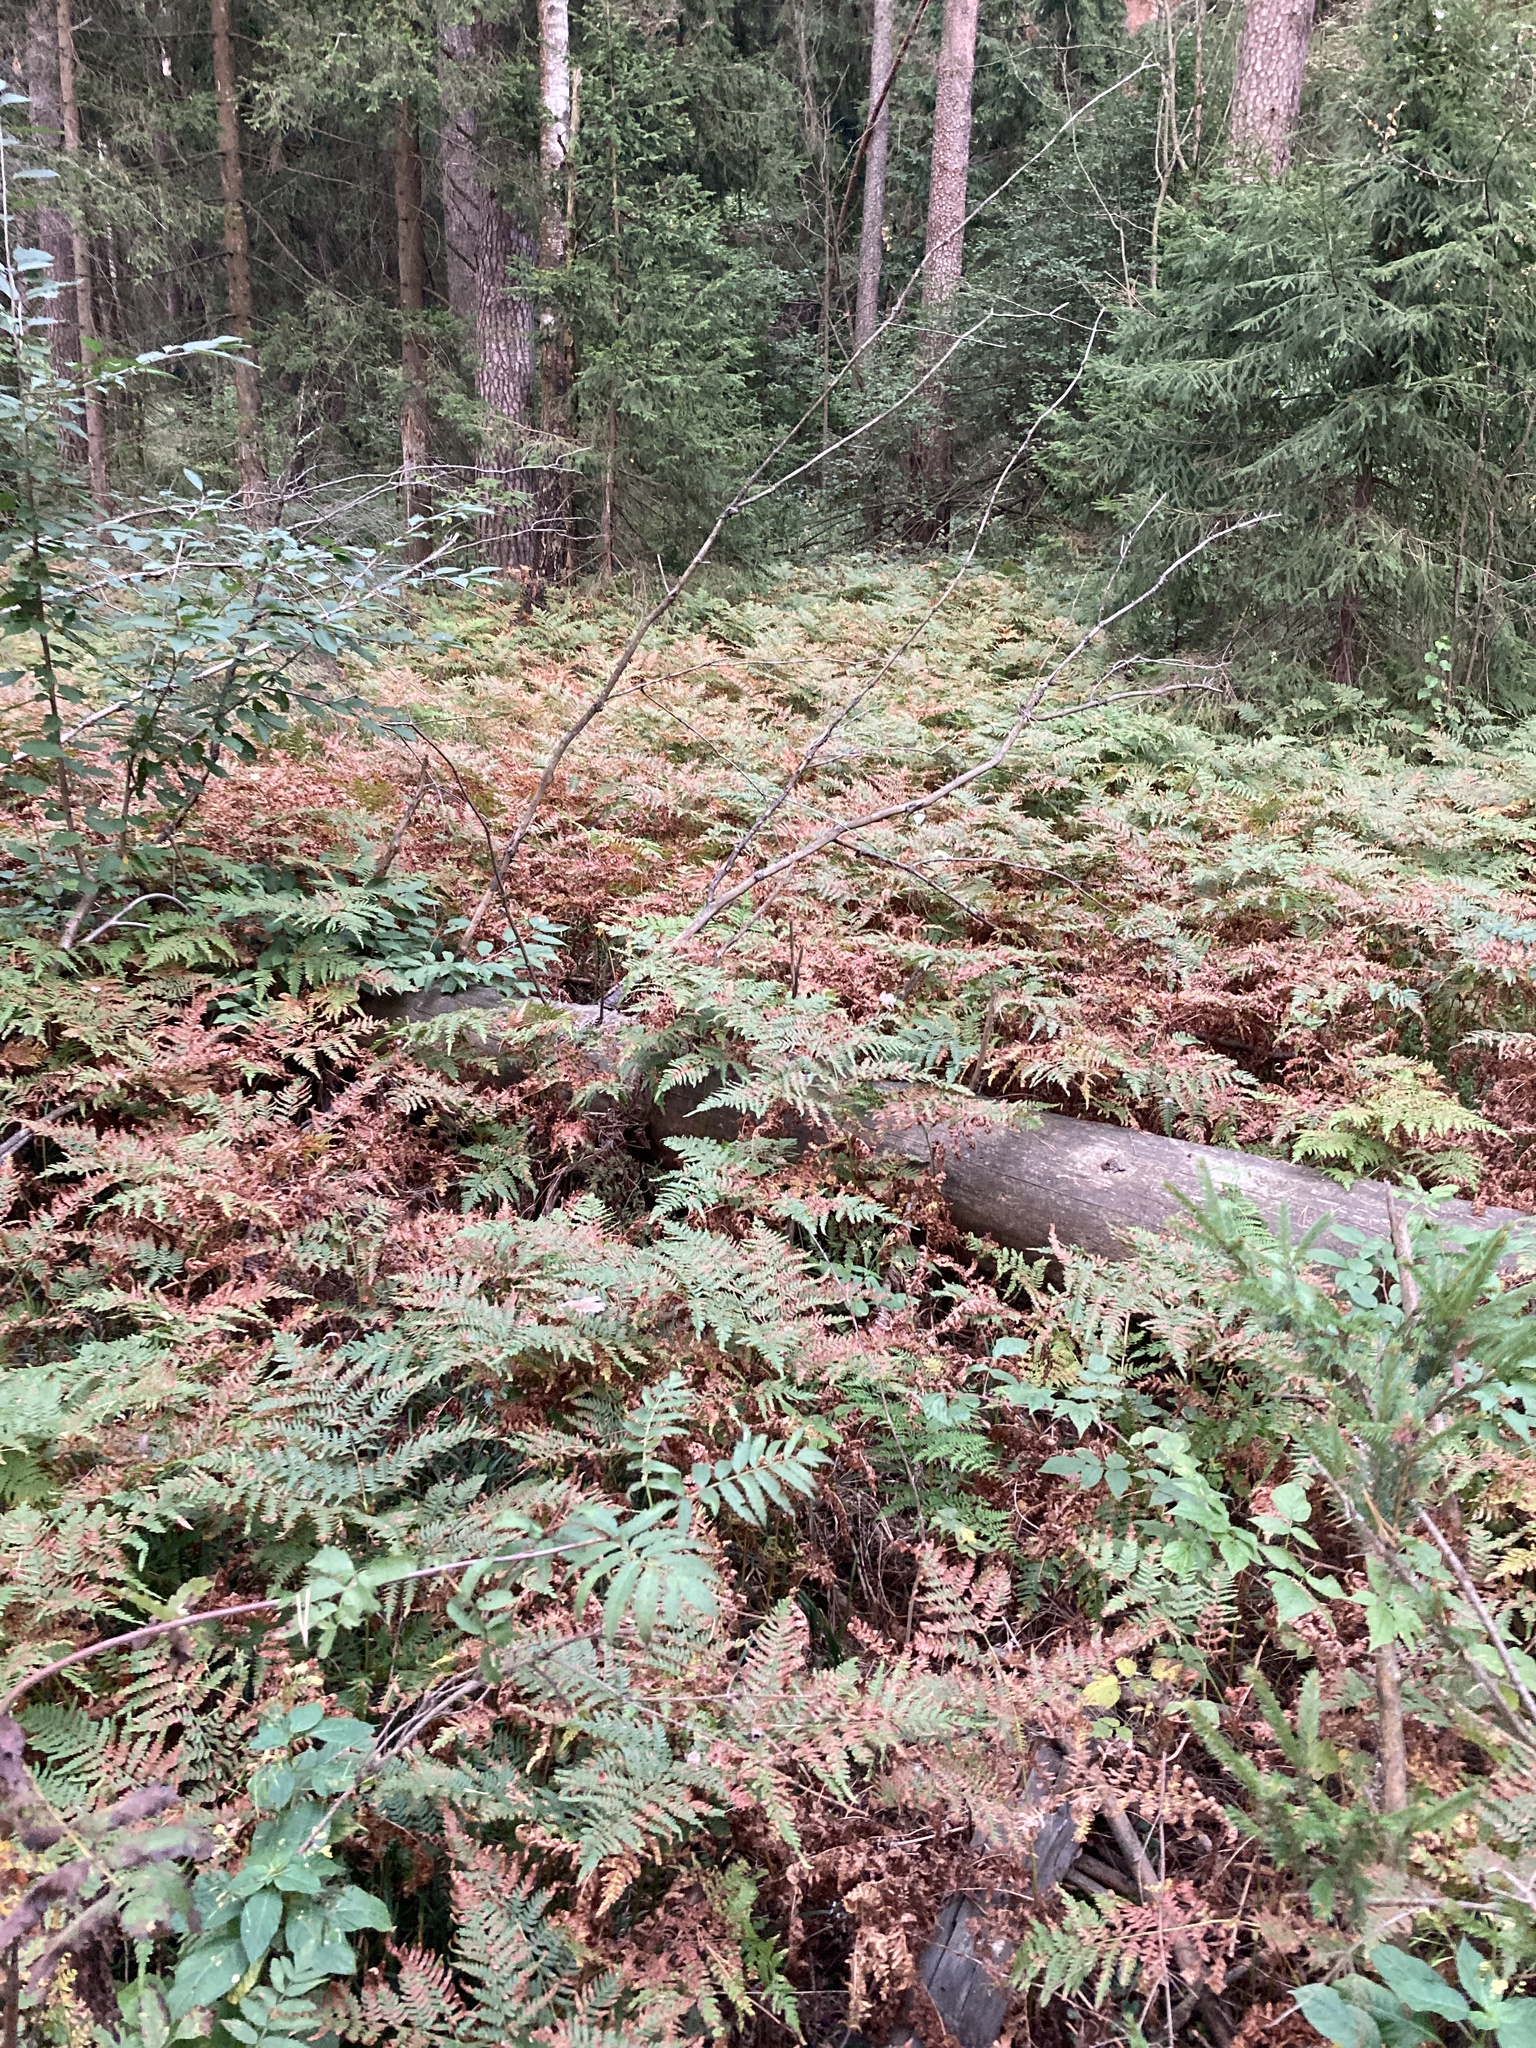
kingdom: Plantae
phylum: Tracheophyta
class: Polypodiopsida
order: Polypodiales
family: Dennstaedtiaceae
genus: Pteridium
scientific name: Pteridium aquilinum
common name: Bracken
